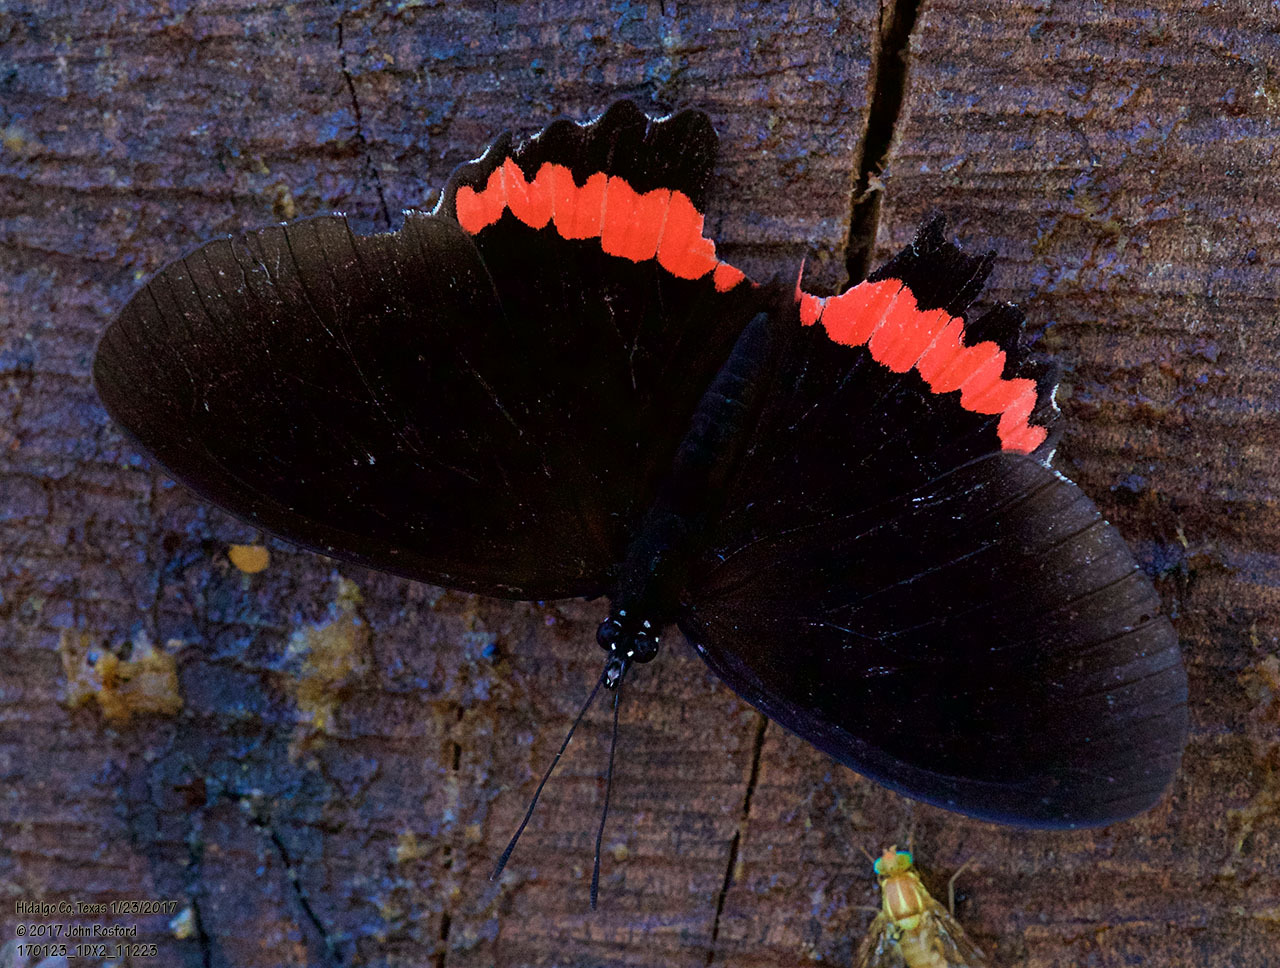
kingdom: Animalia
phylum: Arthropoda
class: Insecta
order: Lepidoptera
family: Nymphalidae
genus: Biblis
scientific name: Biblis aganisa
